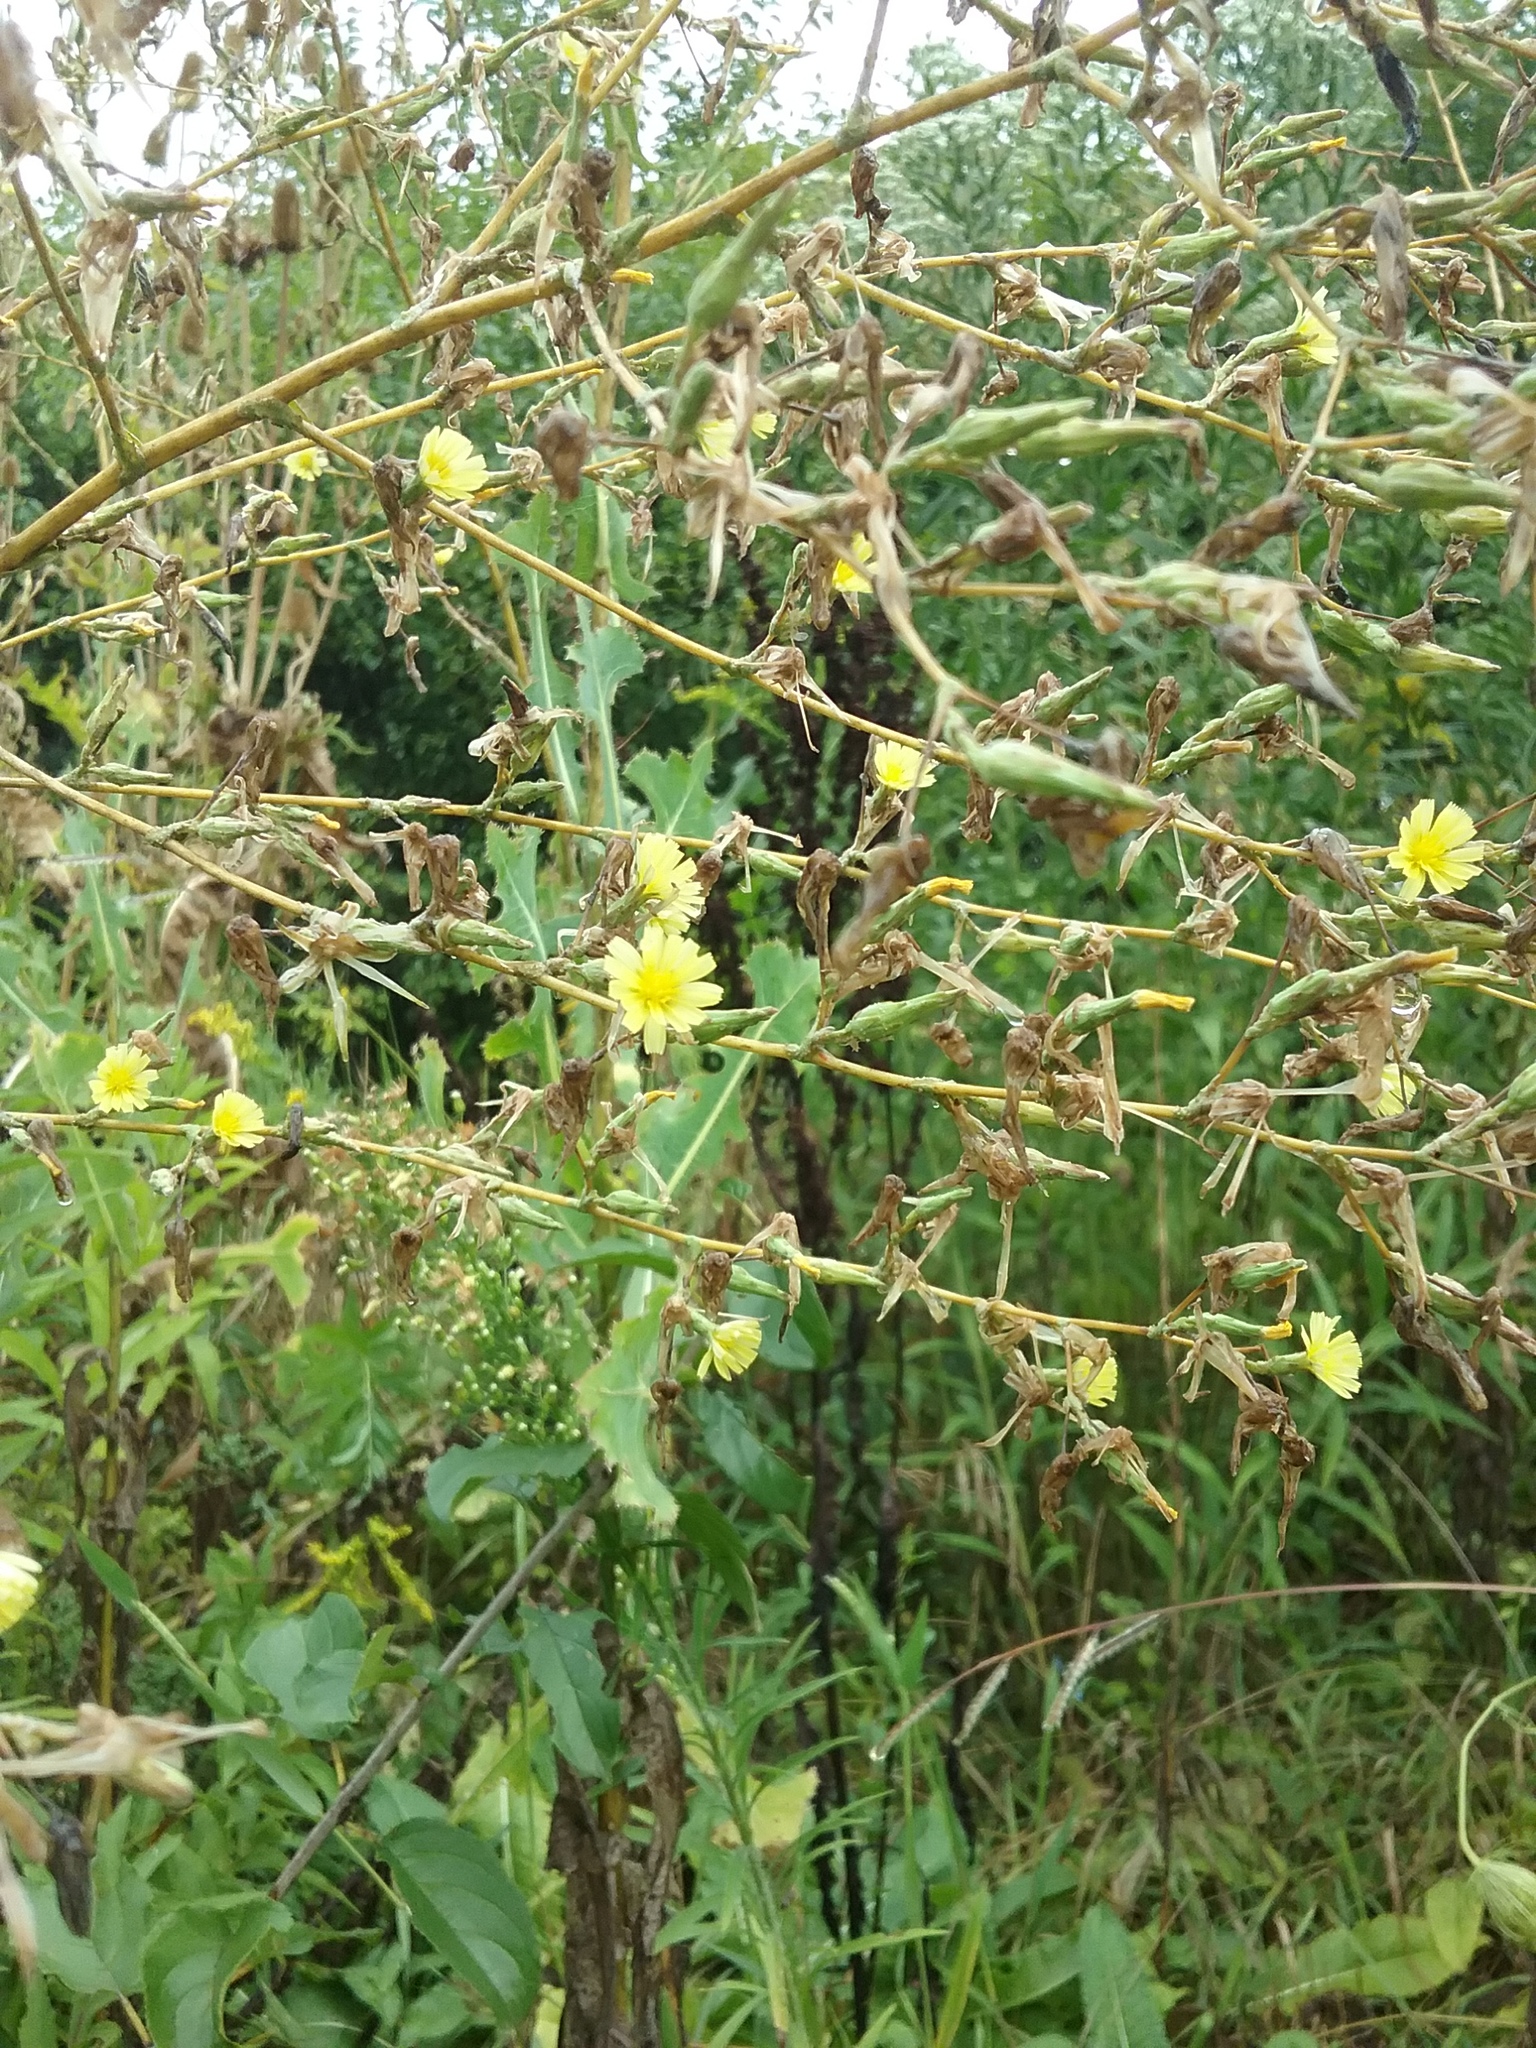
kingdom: Plantae
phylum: Tracheophyta
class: Magnoliopsida
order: Asterales
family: Asteraceae
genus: Lactuca
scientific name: Lactuca serriola
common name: Prickly lettuce
